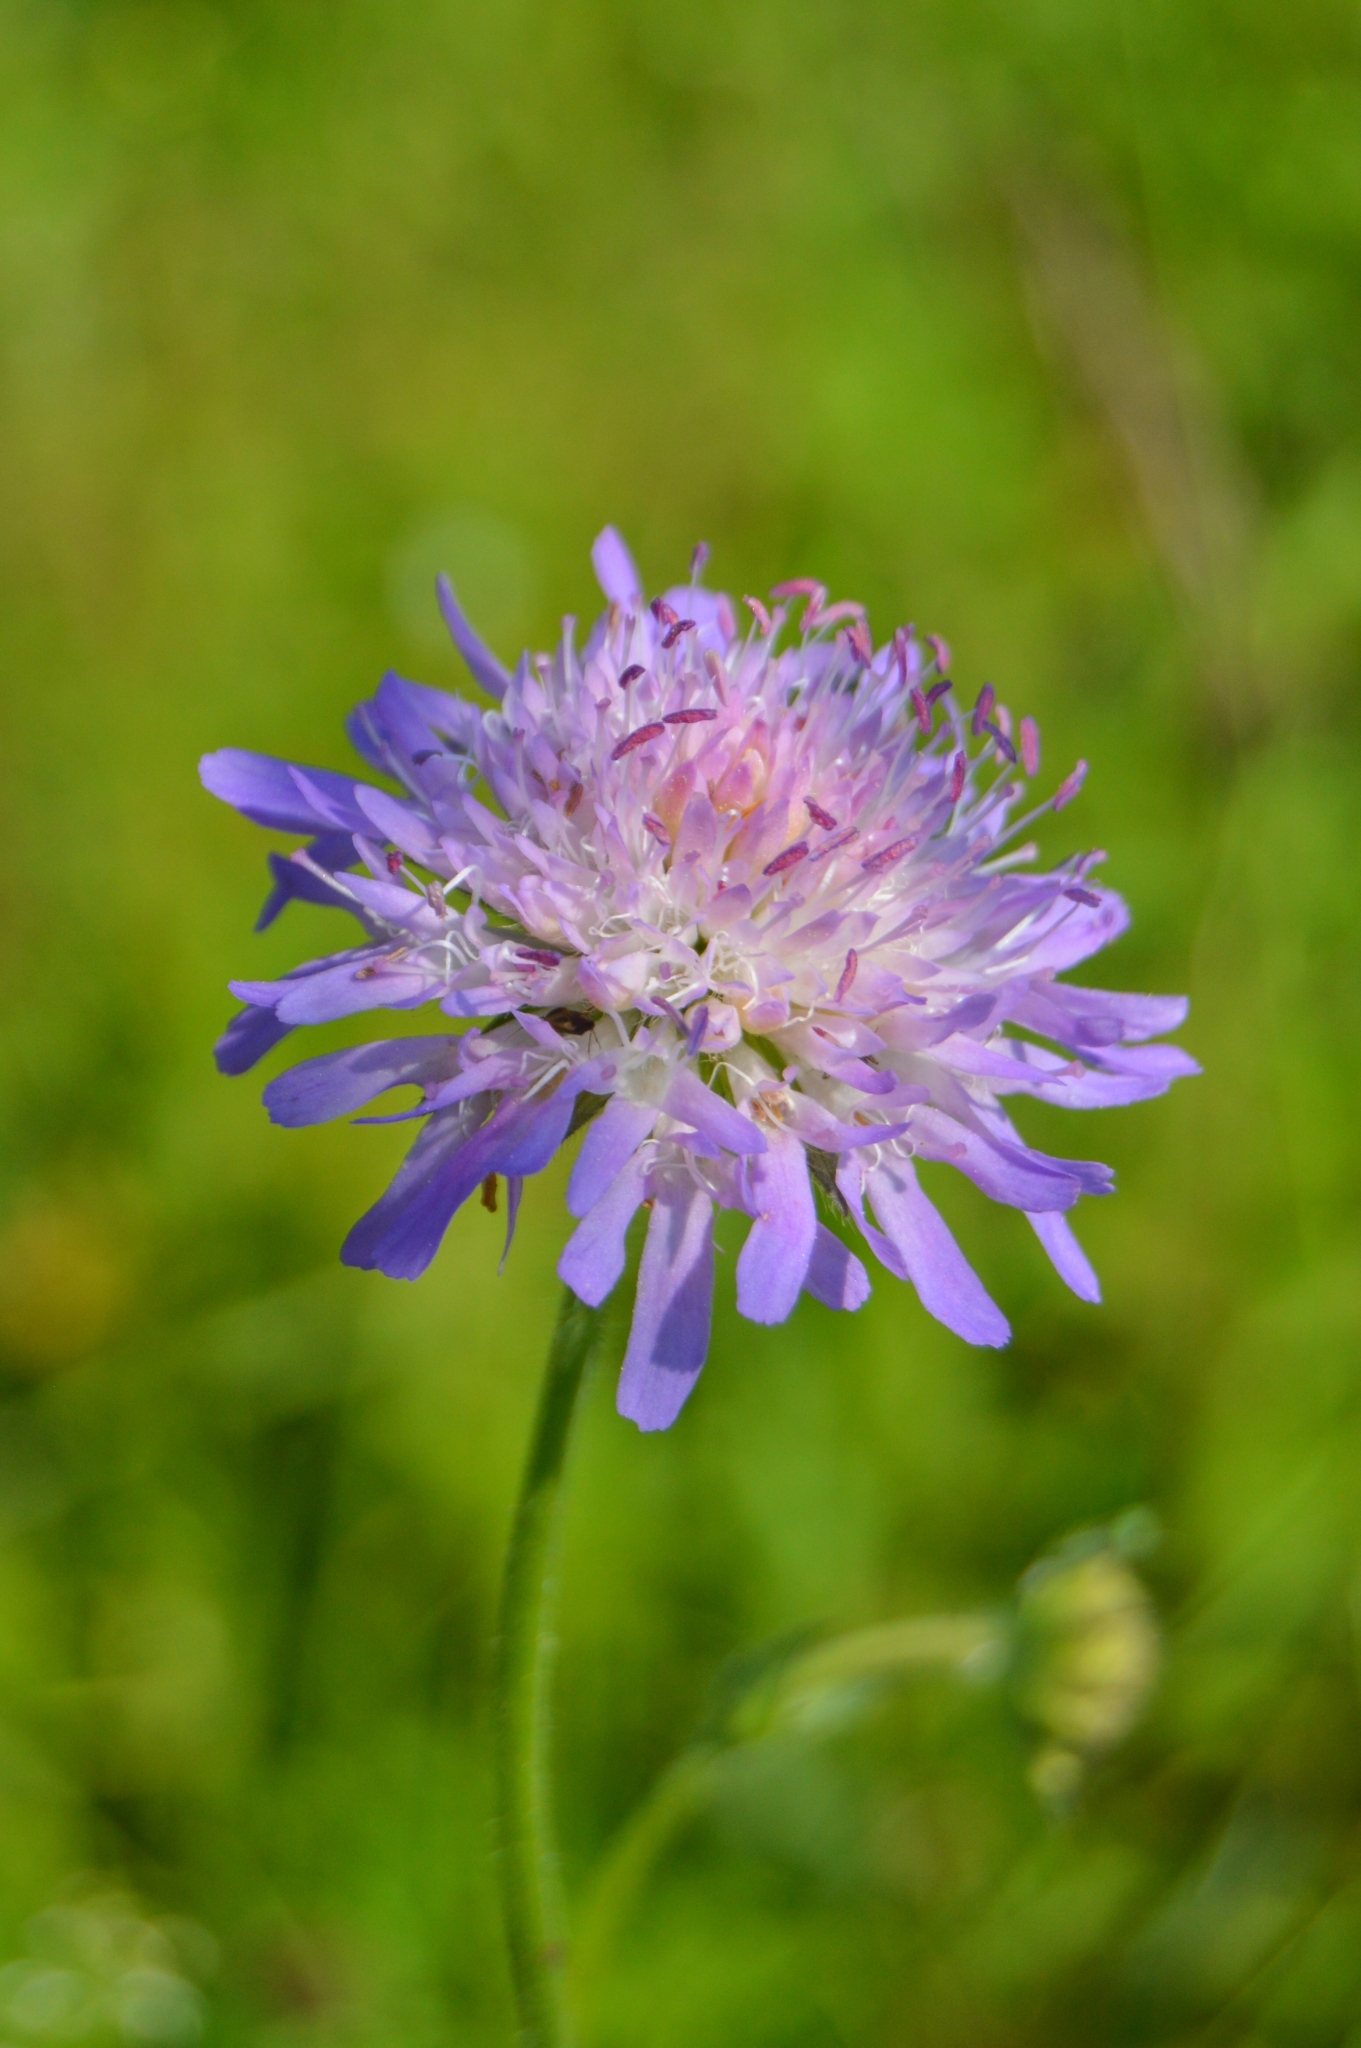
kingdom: Plantae
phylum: Tracheophyta
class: Magnoliopsida
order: Dipsacales
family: Caprifoliaceae
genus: Knautia
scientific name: Knautia arvensis
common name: Field scabiosa
